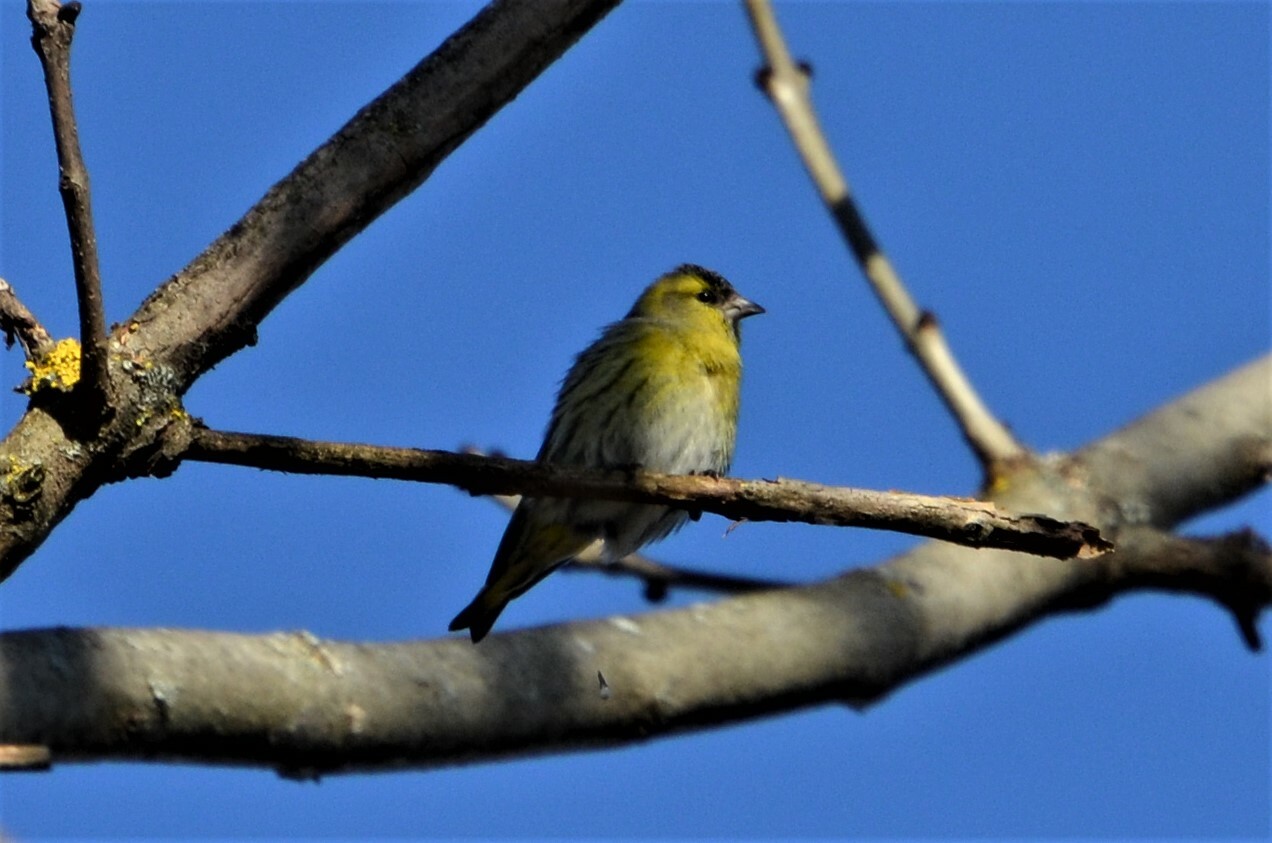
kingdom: Animalia
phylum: Chordata
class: Aves
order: Passeriformes
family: Fringillidae
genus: Spinus
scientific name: Spinus spinus
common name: Eurasian siskin
